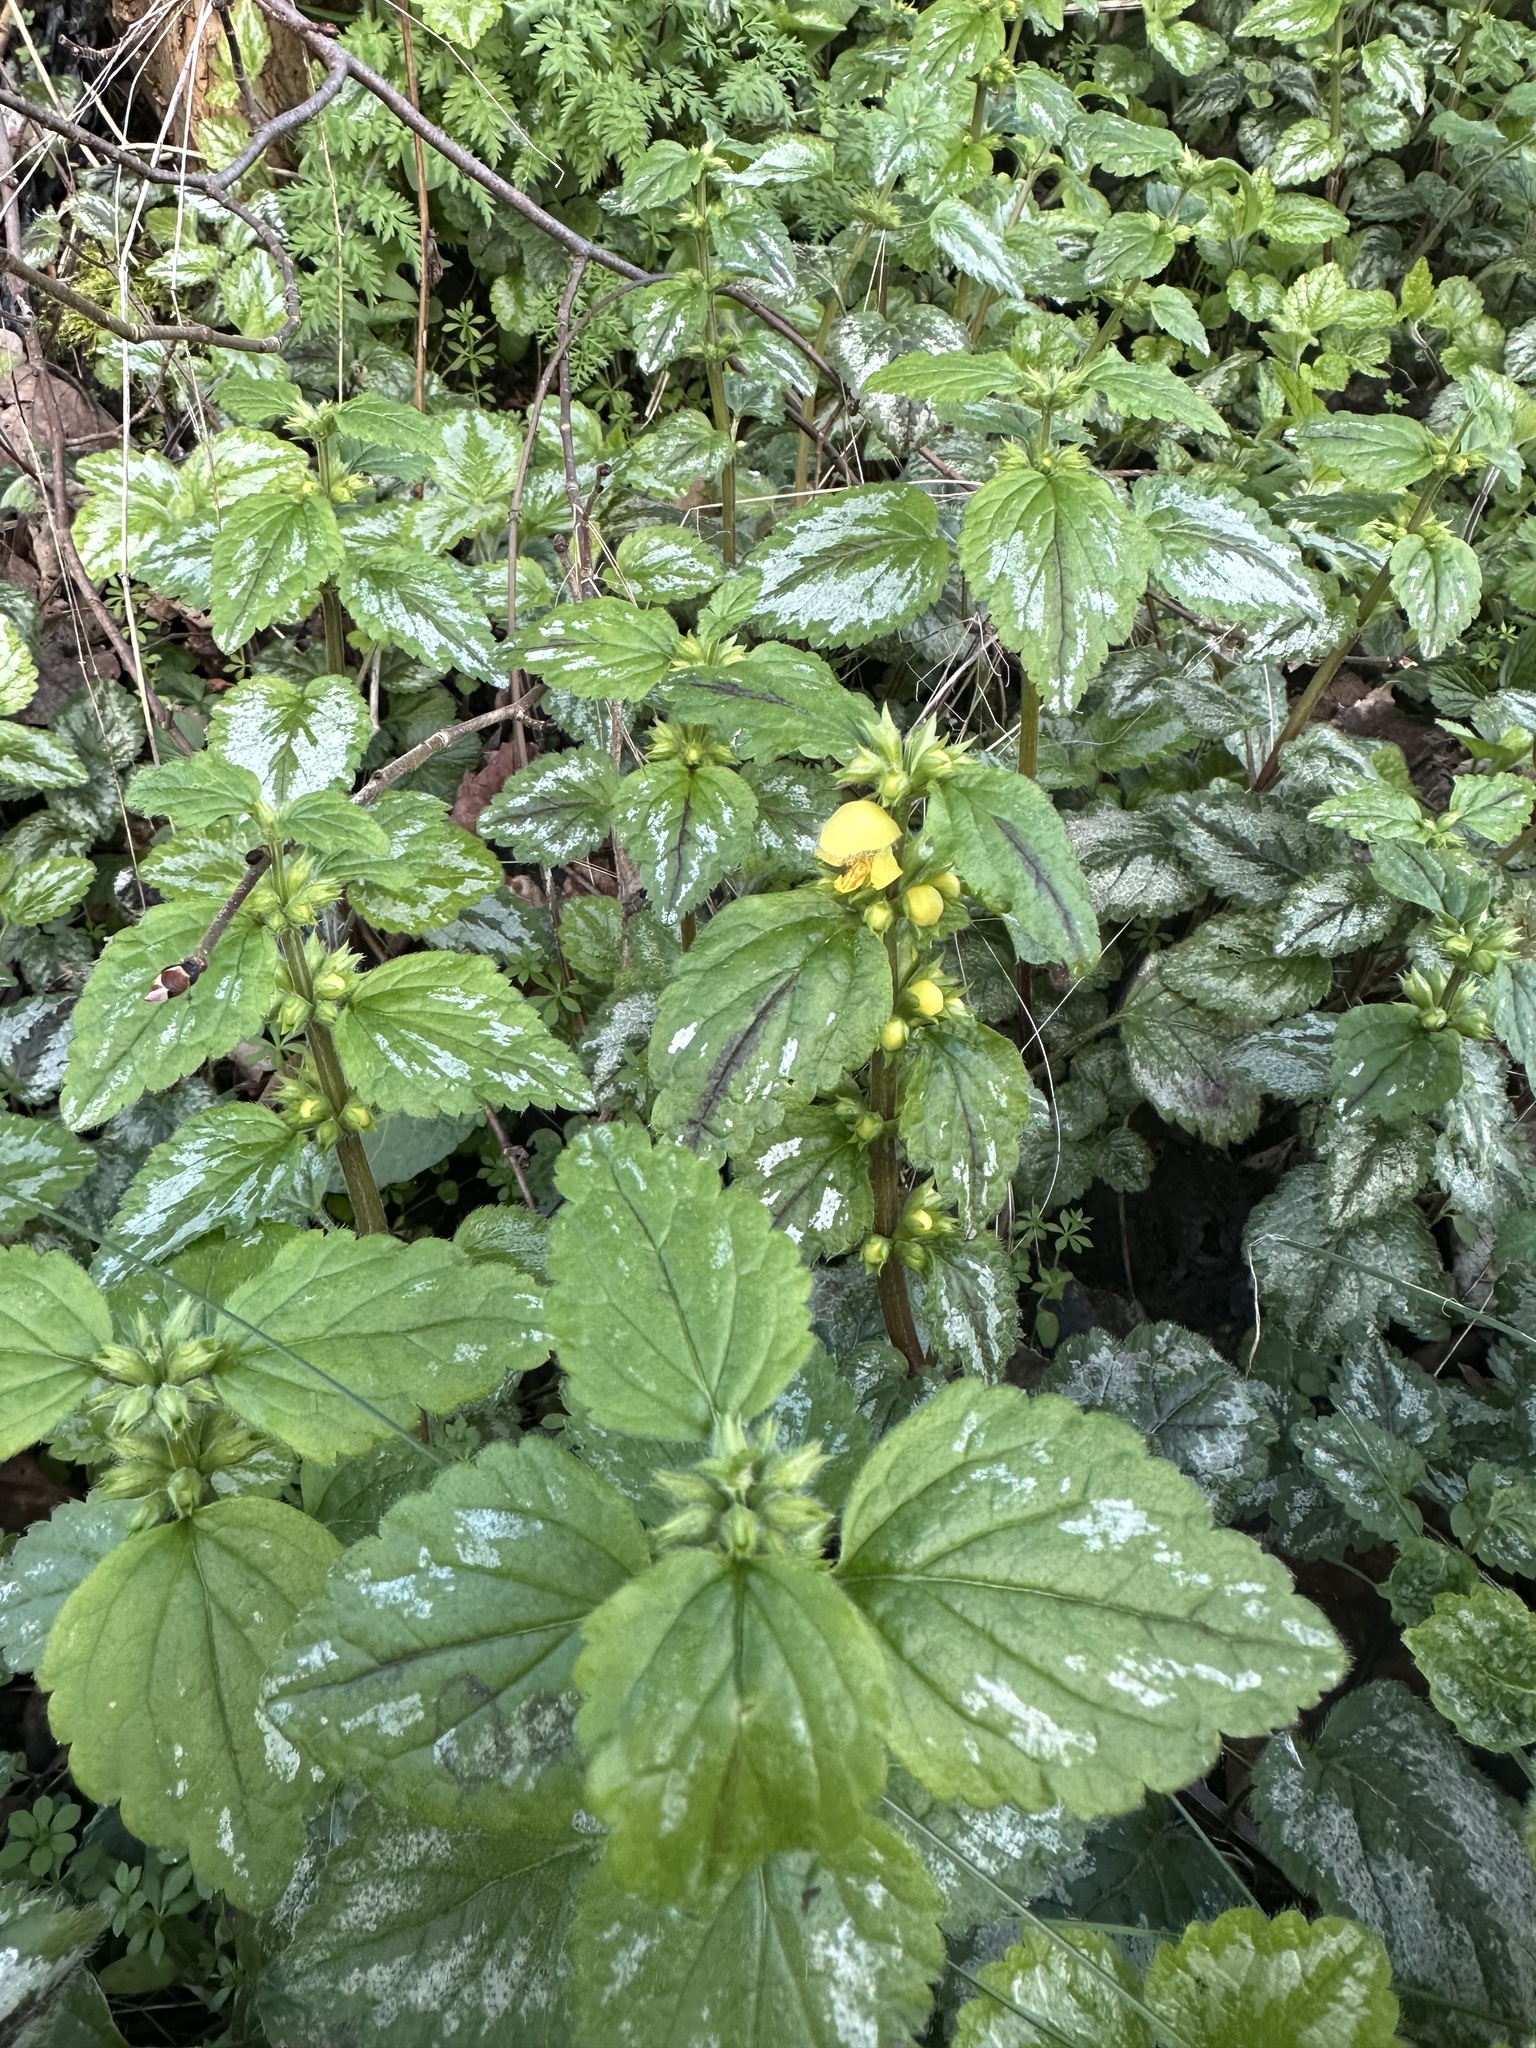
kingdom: Plantae
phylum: Tracheophyta
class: Magnoliopsida
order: Lamiales
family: Lamiaceae
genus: Lamium
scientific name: Lamium galeobdolon
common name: Yellow archangel
